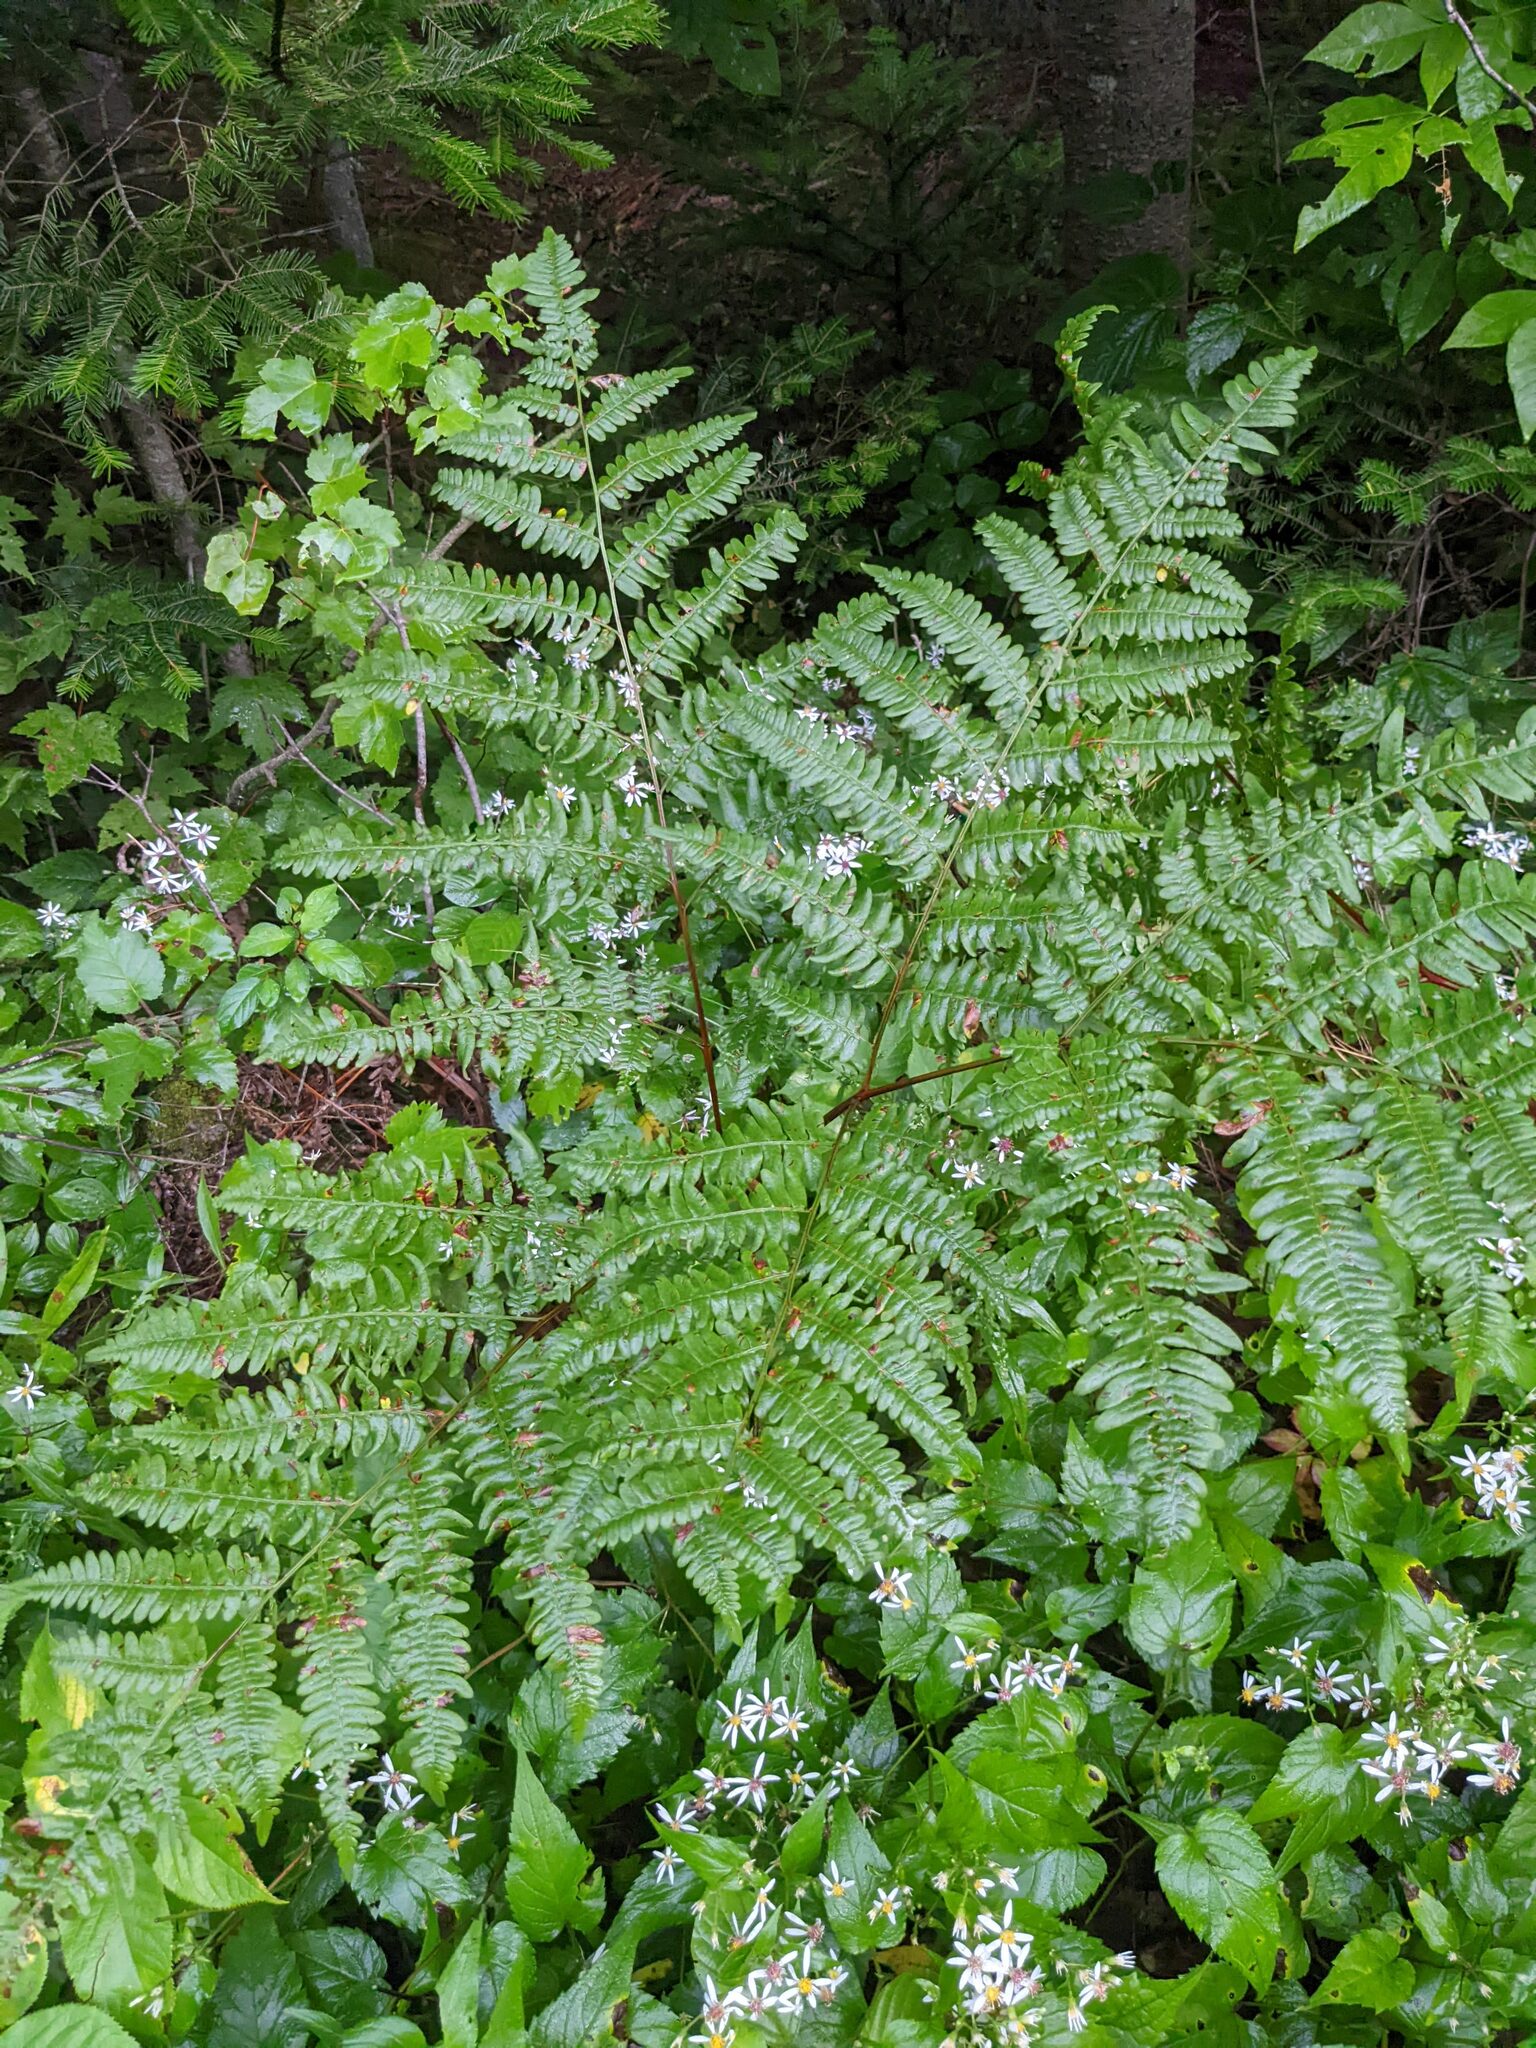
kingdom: Plantae
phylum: Tracheophyta
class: Polypodiopsida
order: Polypodiales
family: Dennstaedtiaceae
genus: Pteridium
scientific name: Pteridium aquilinum
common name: Bracken
